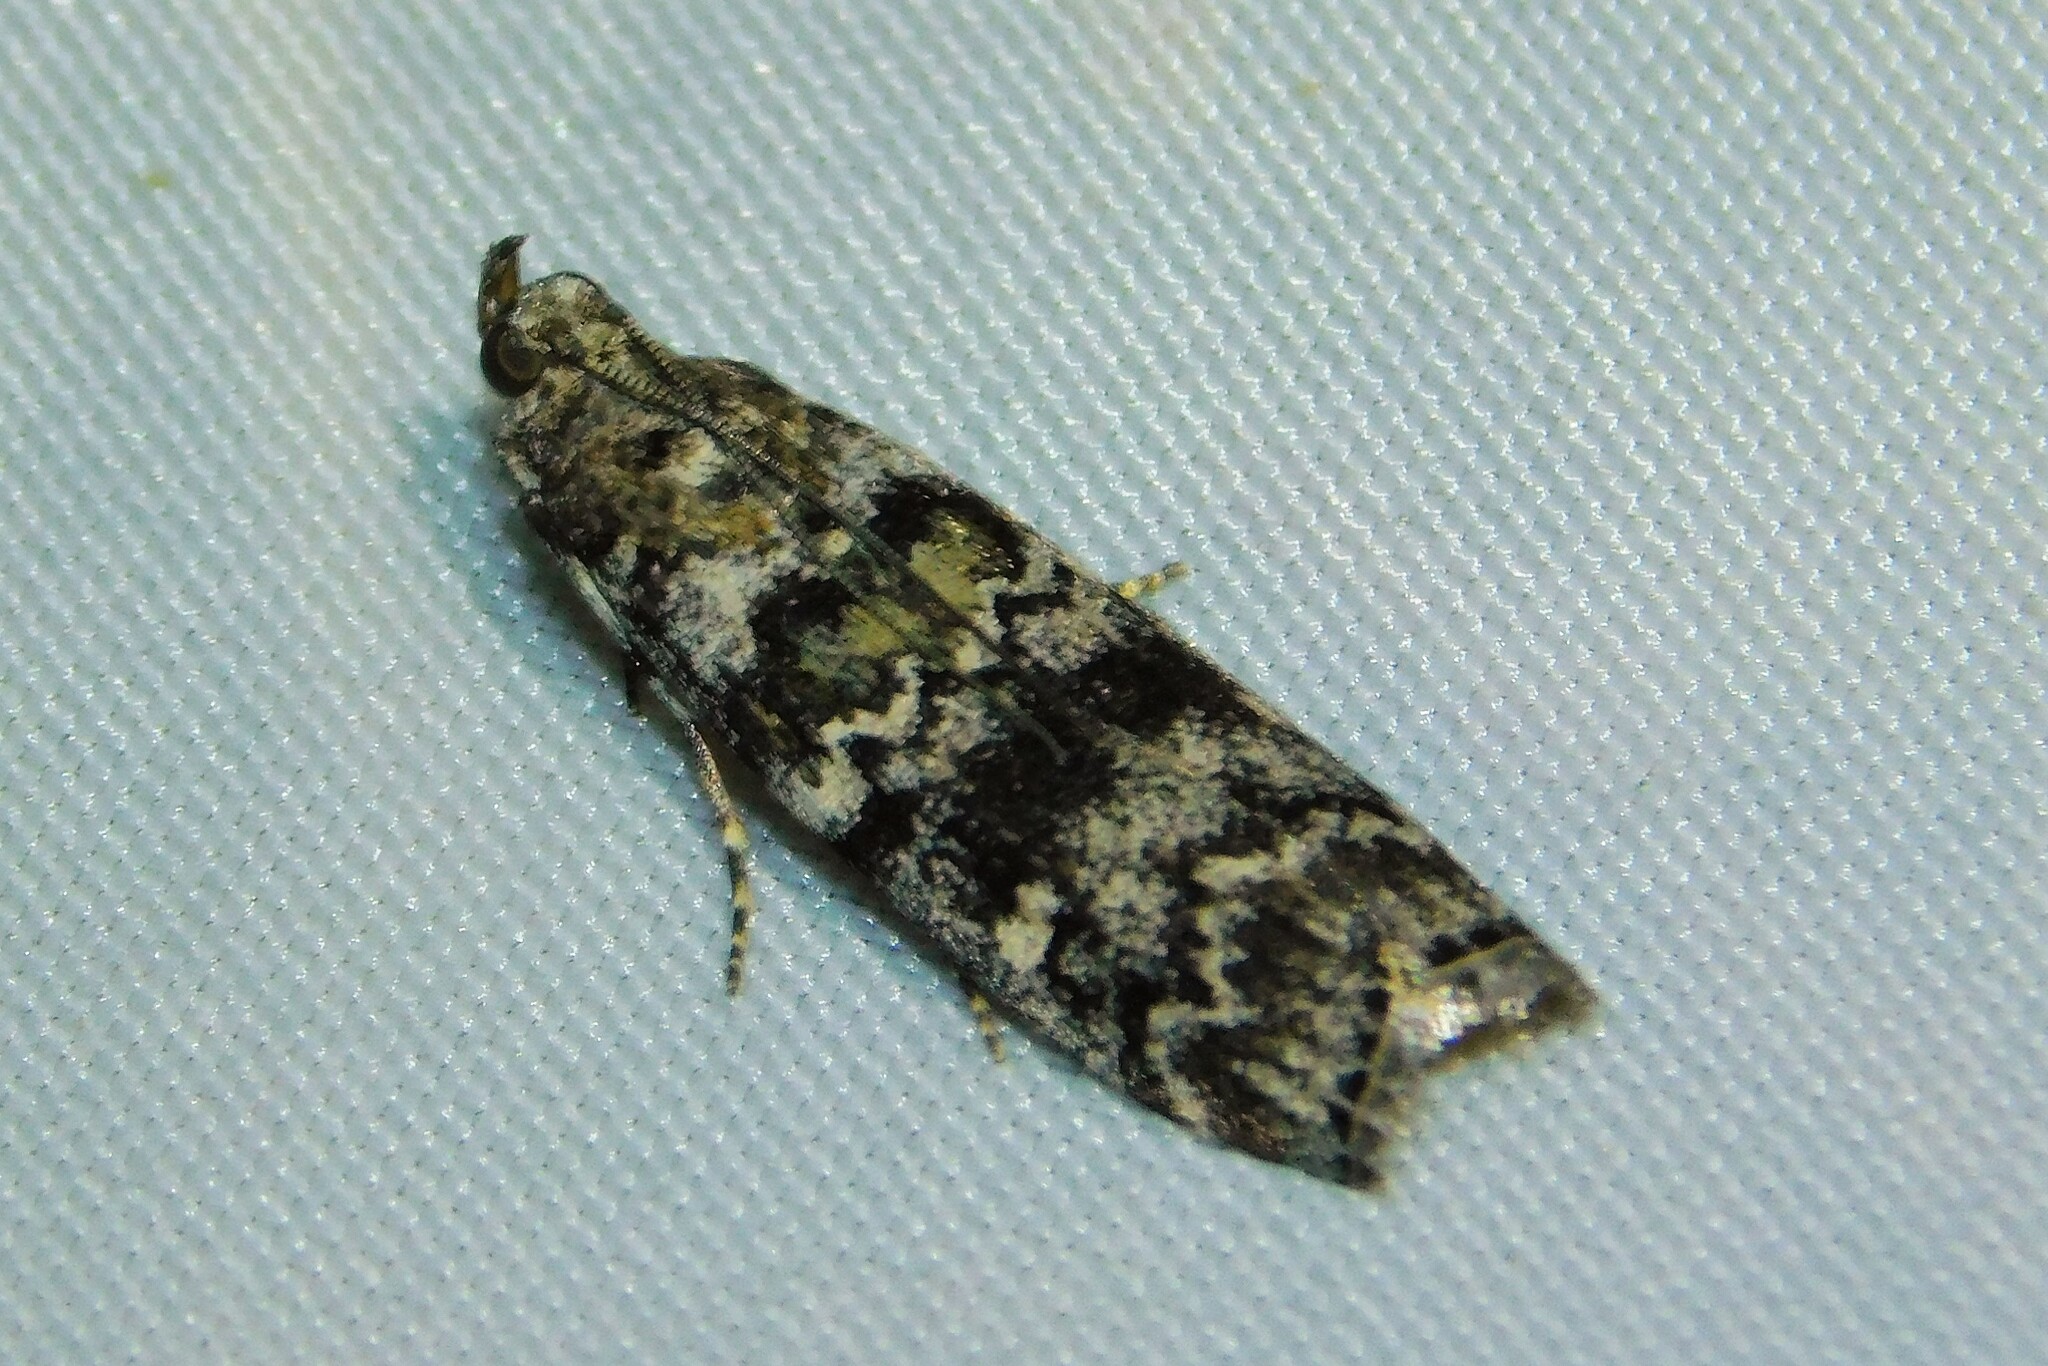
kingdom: Animalia
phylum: Arthropoda
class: Insecta
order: Lepidoptera
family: Pyralidae
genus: Dioryctria
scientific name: Dioryctria abietella
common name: Dark pine knot-horn
